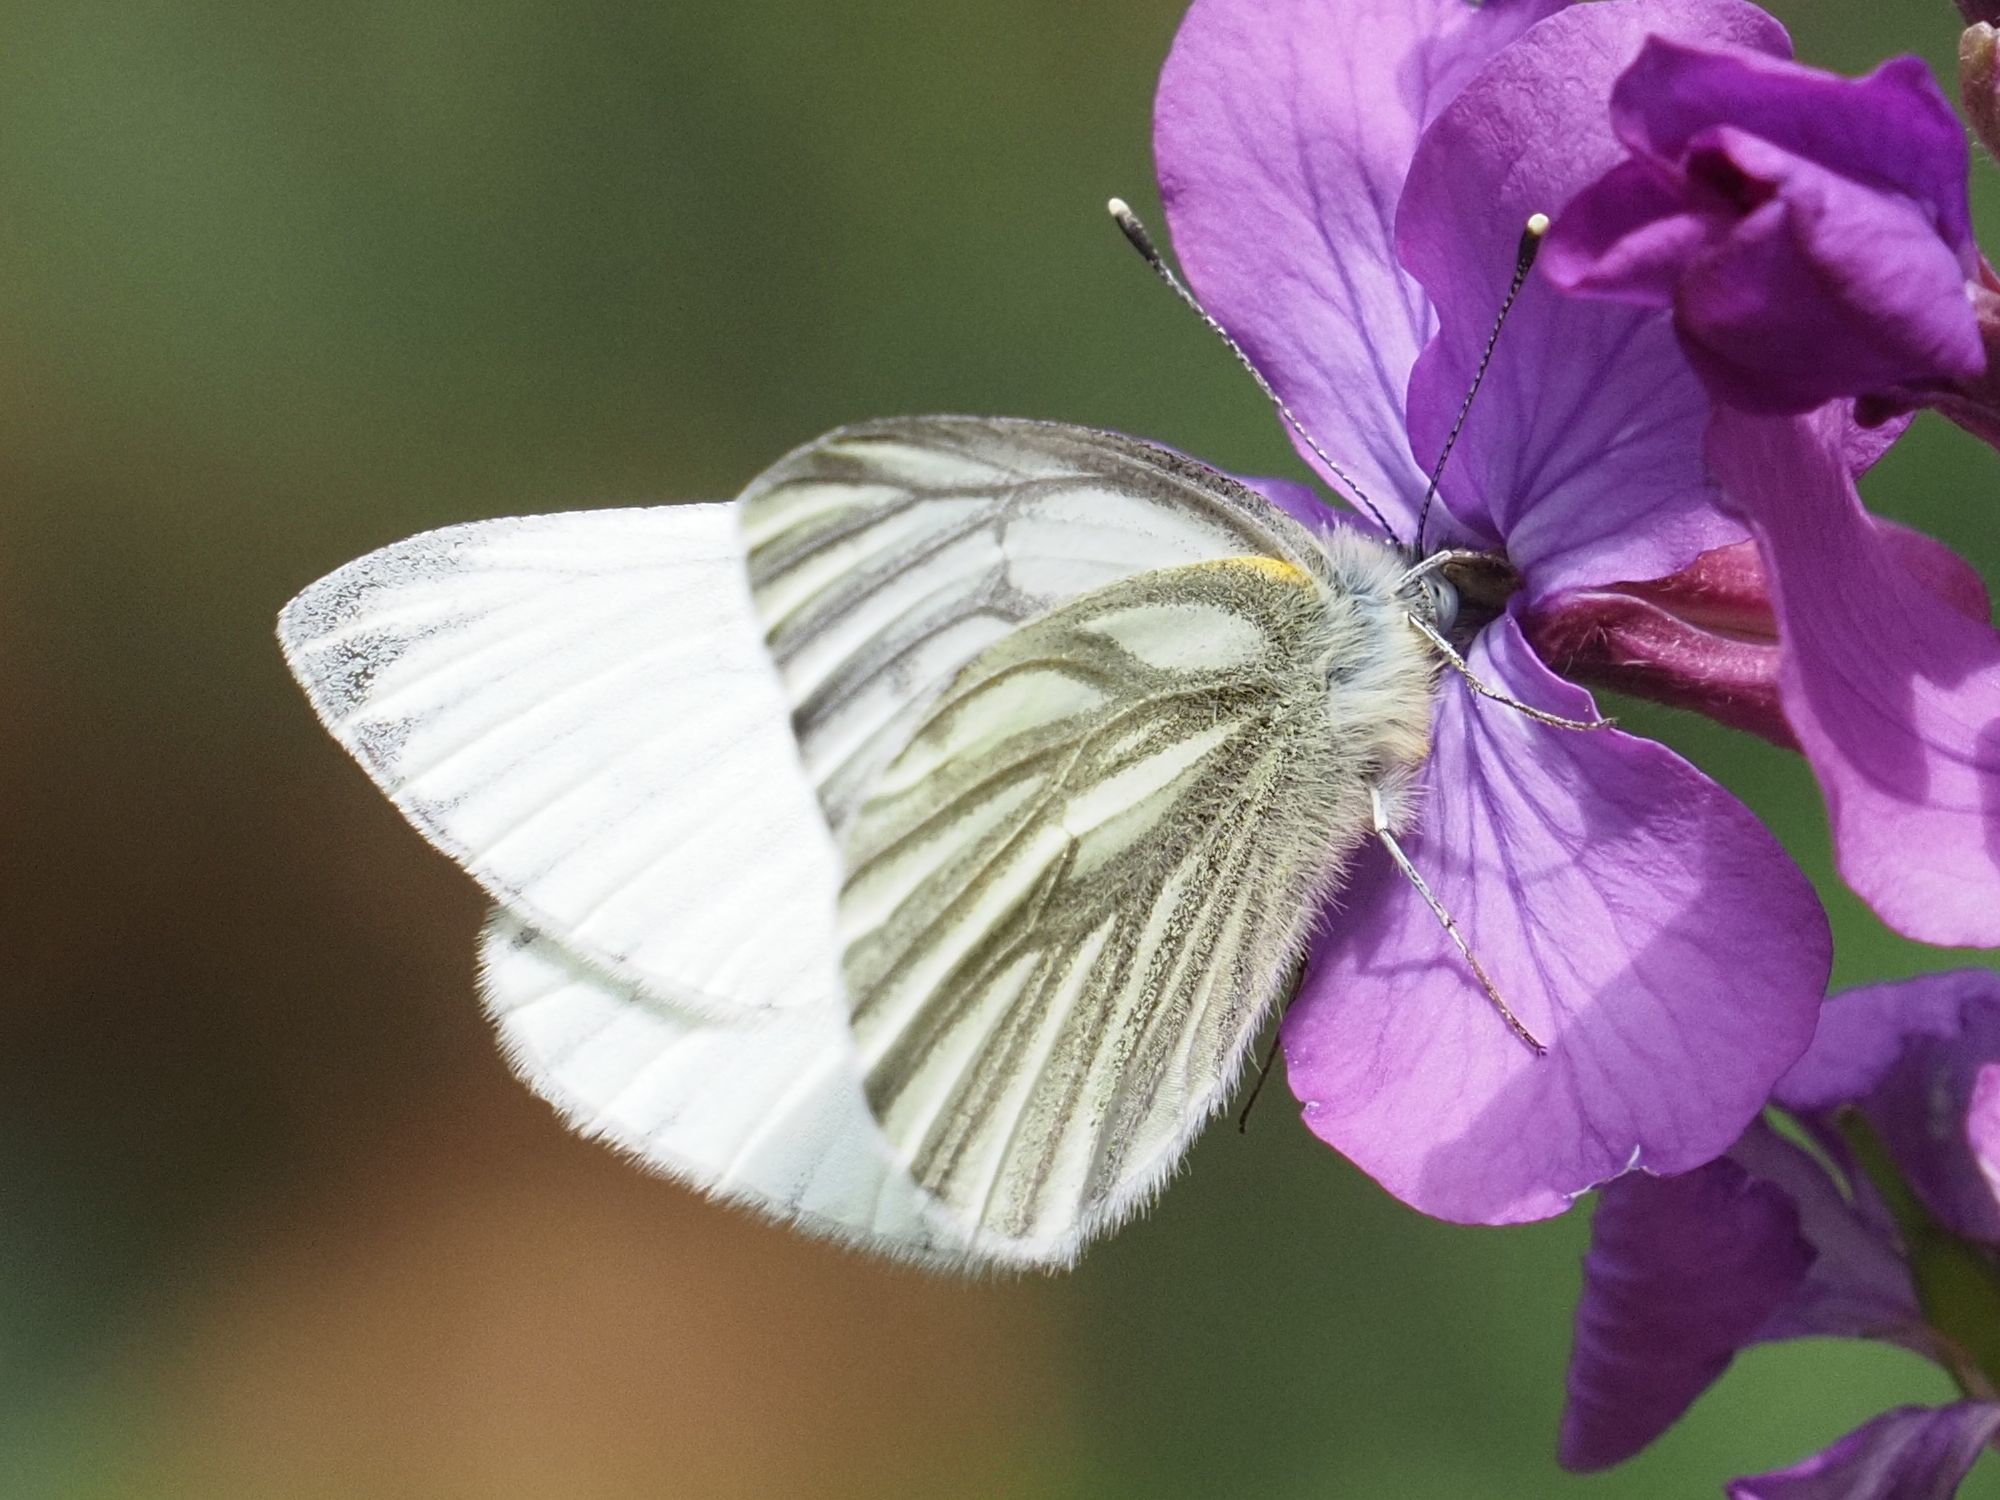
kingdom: Animalia
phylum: Arthropoda
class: Insecta
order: Lepidoptera
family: Pieridae
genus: Pieris
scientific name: Pieris napi
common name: Green-veined white
